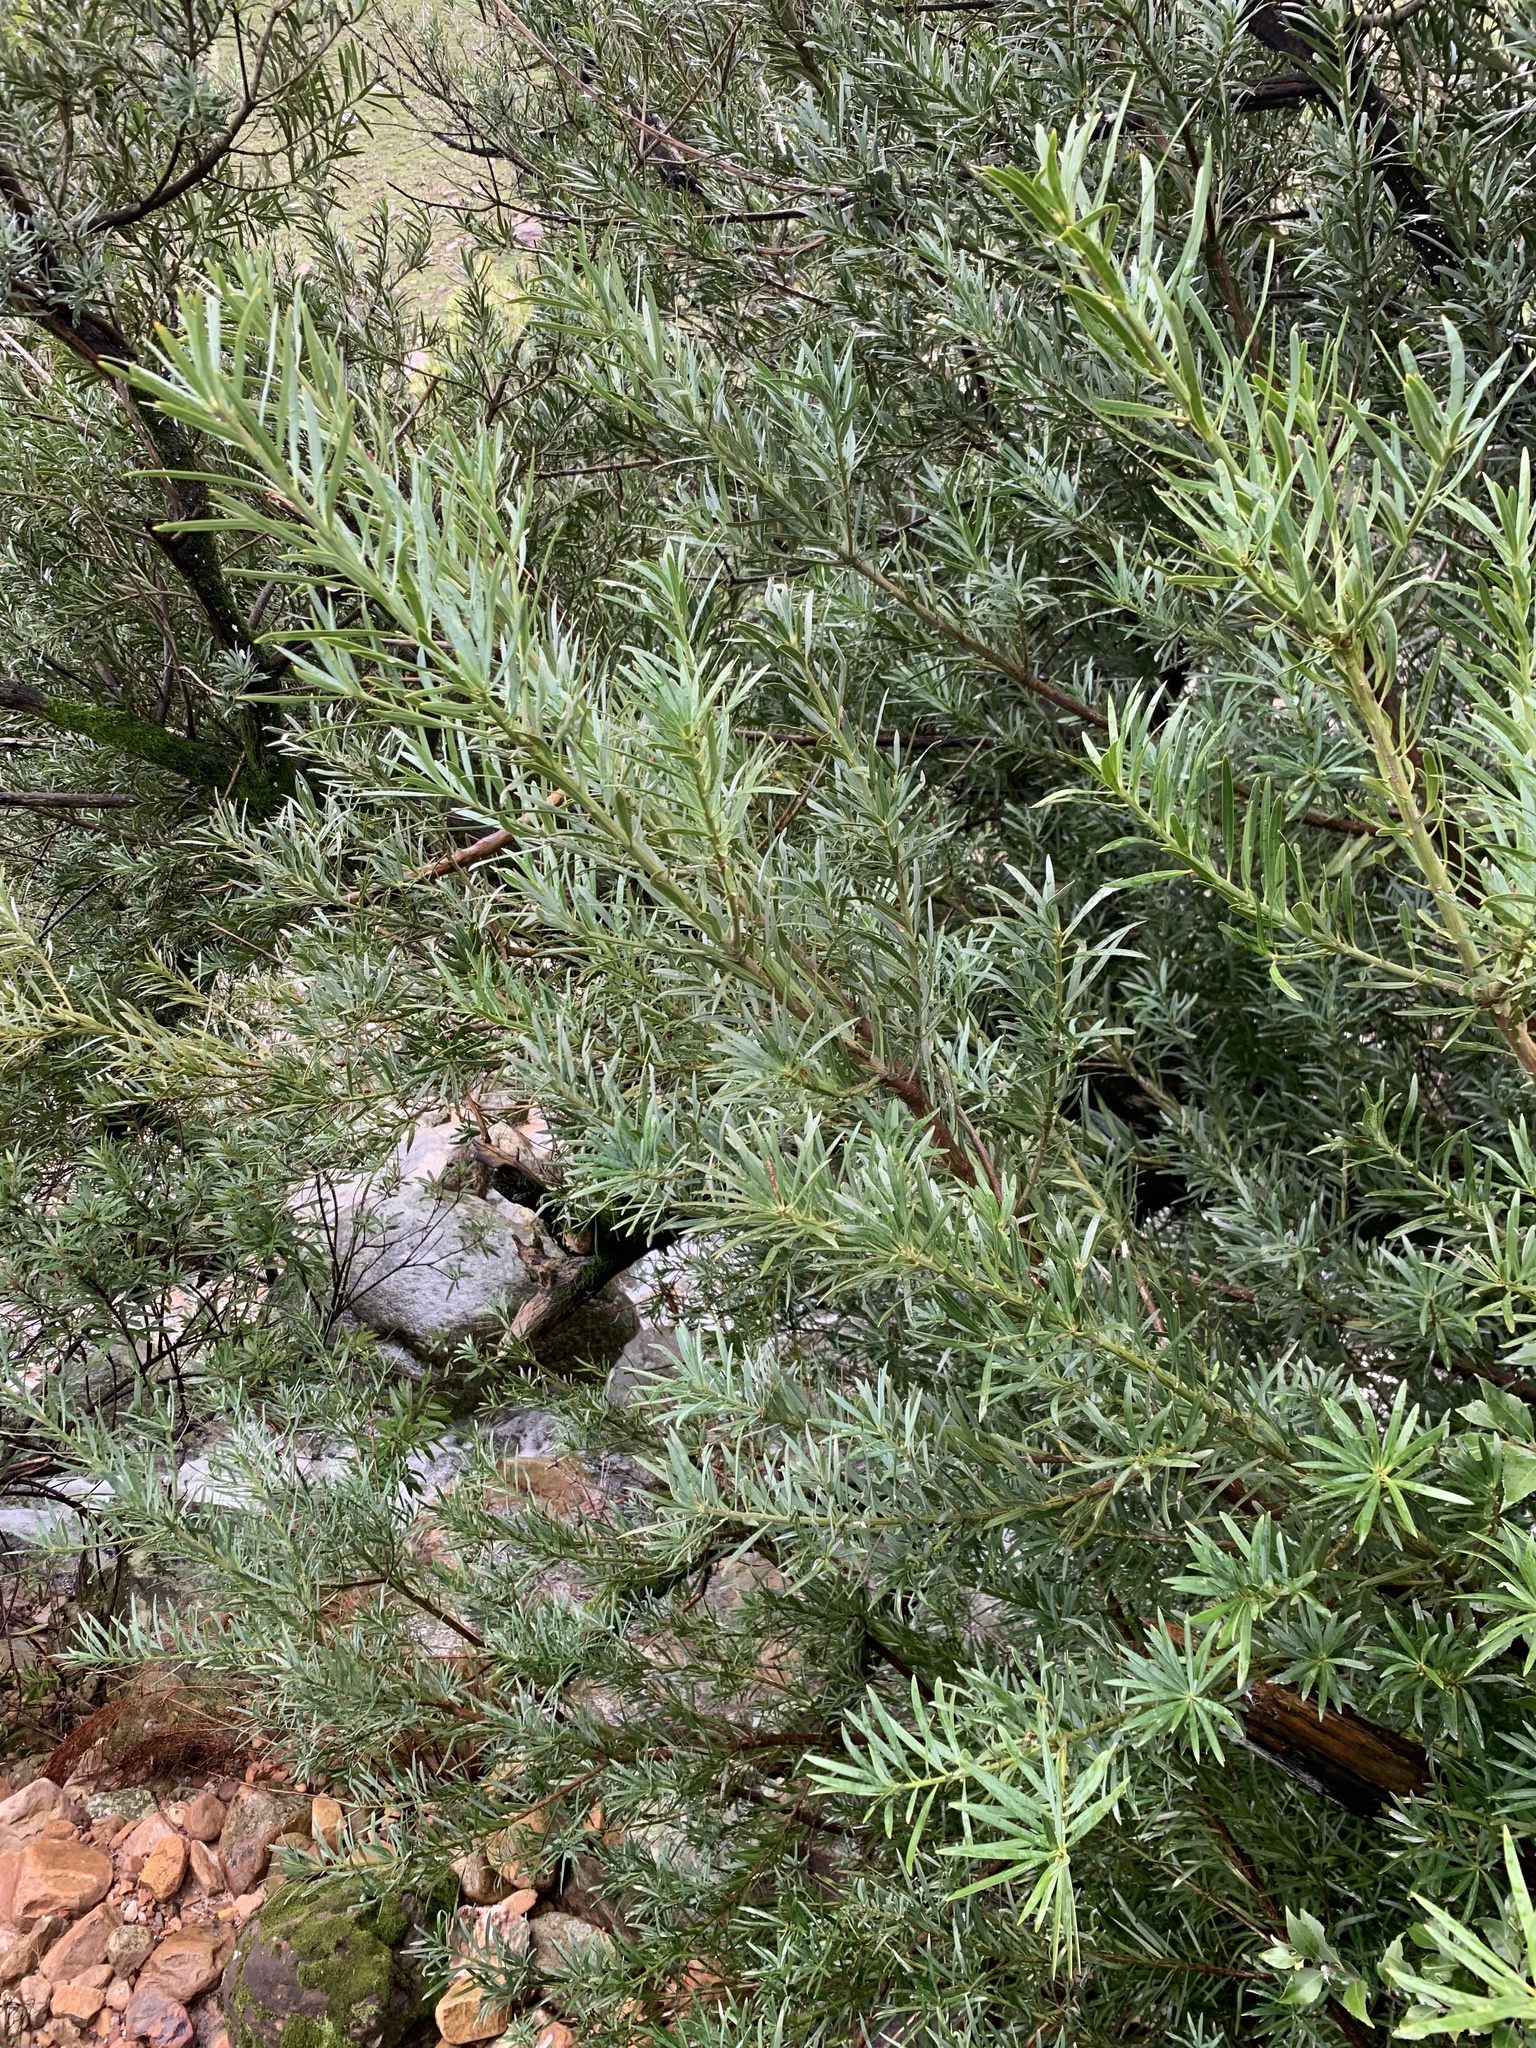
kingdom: Plantae
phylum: Tracheophyta
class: Pinopsida
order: Pinales
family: Podocarpaceae
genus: Podocarpus
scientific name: Podocarpus elongatus
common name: Breede river yellowwood
